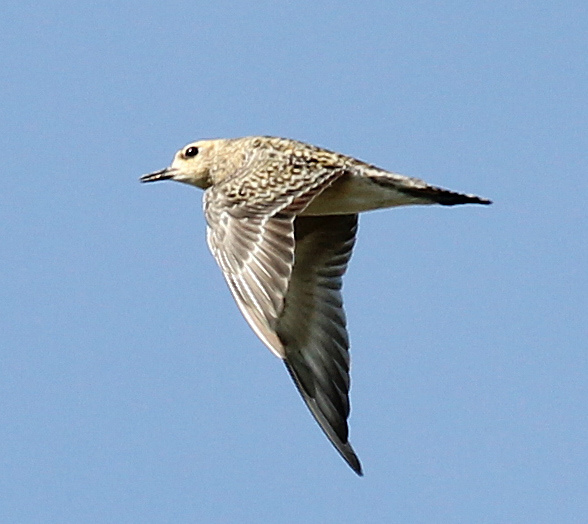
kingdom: Animalia
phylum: Chordata
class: Aves
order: Charadriiformes
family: Charadriidae
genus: Pluvialis
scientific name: Pluvialis fulva
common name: Pacific golden plover
